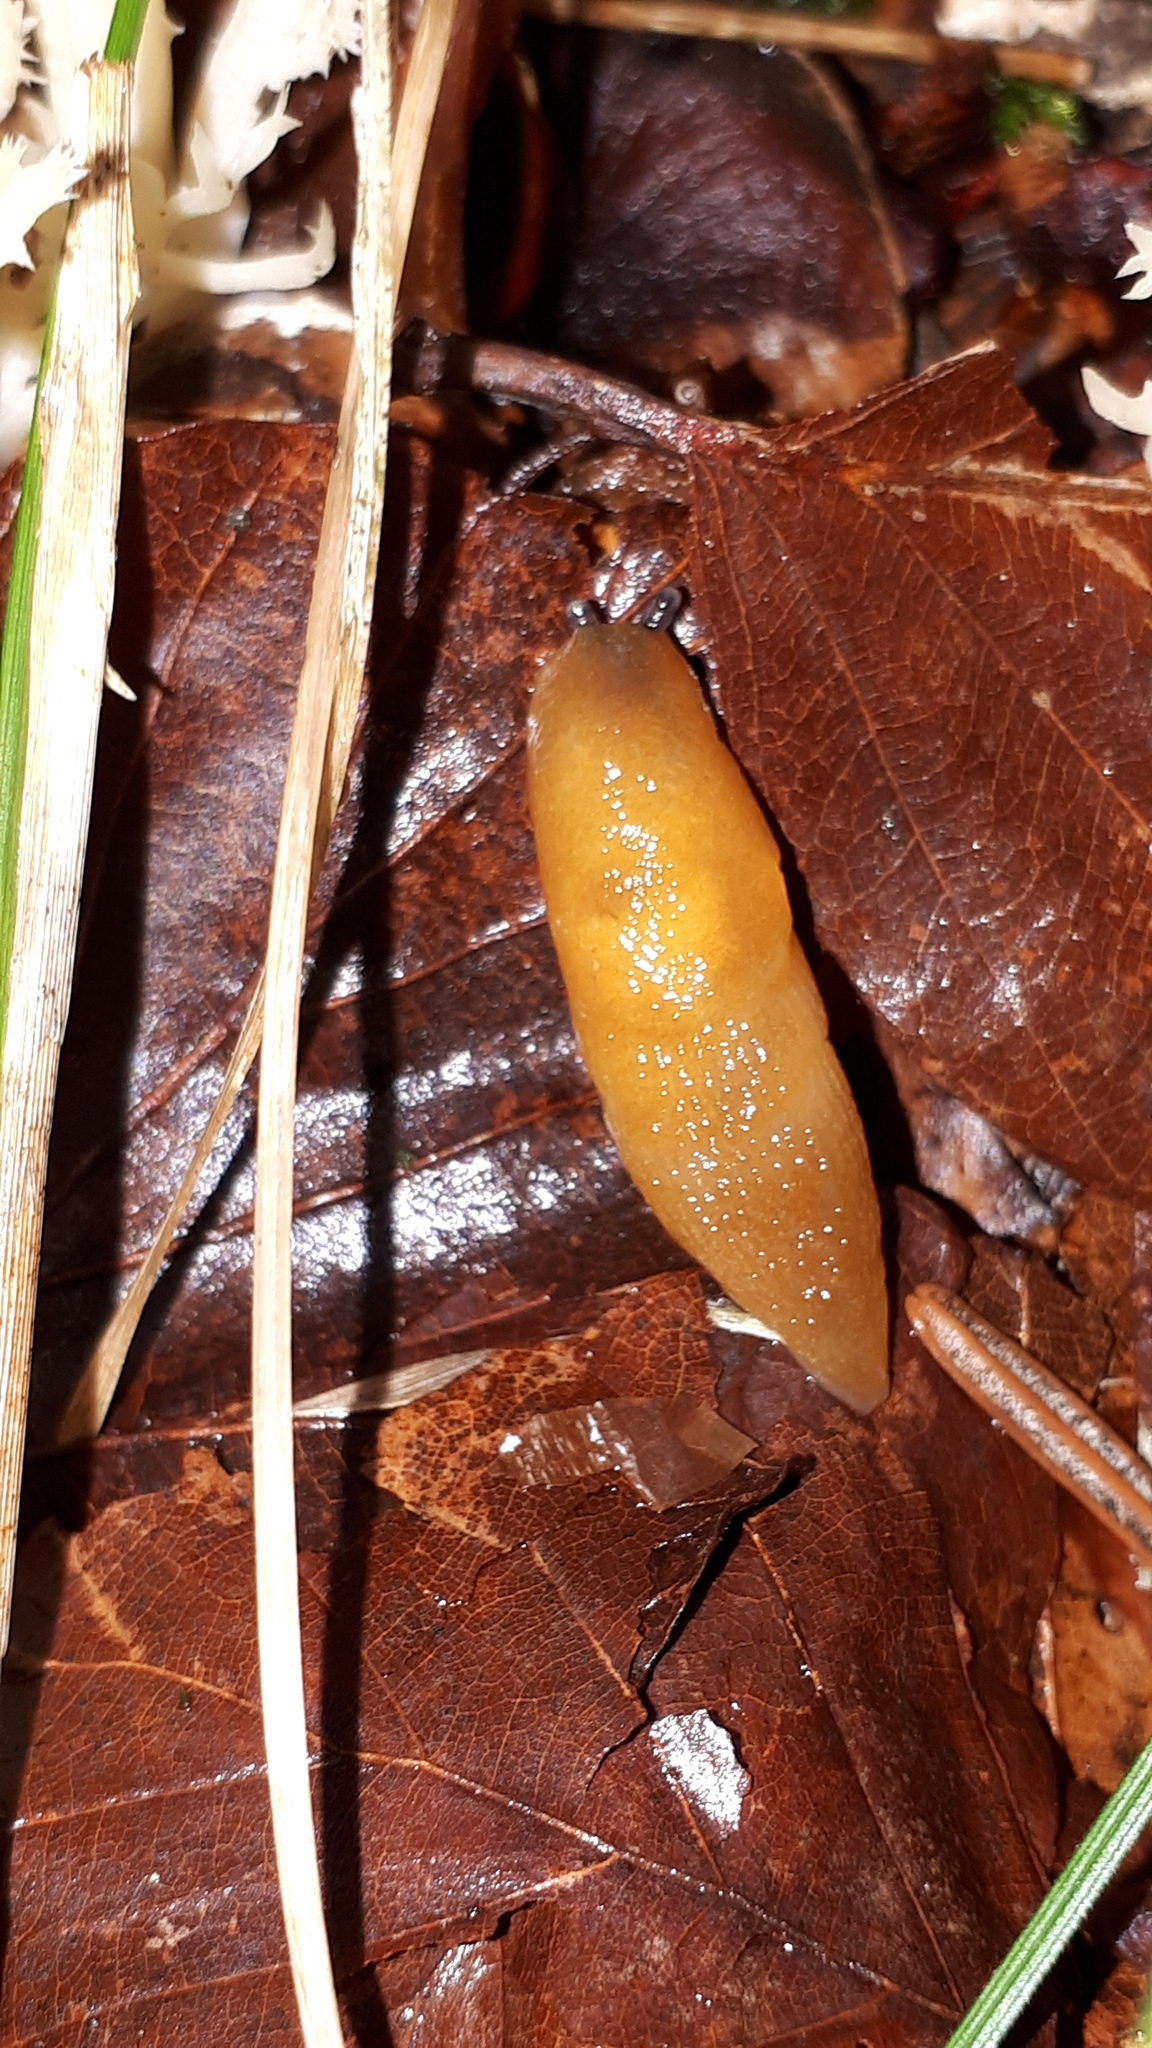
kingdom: Animalia
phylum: Mollusca
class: Gastropoda
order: Stylommatophora
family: Limacidae
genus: Malacolimax
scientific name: Malacolimax tenellus
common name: Lemon slug
